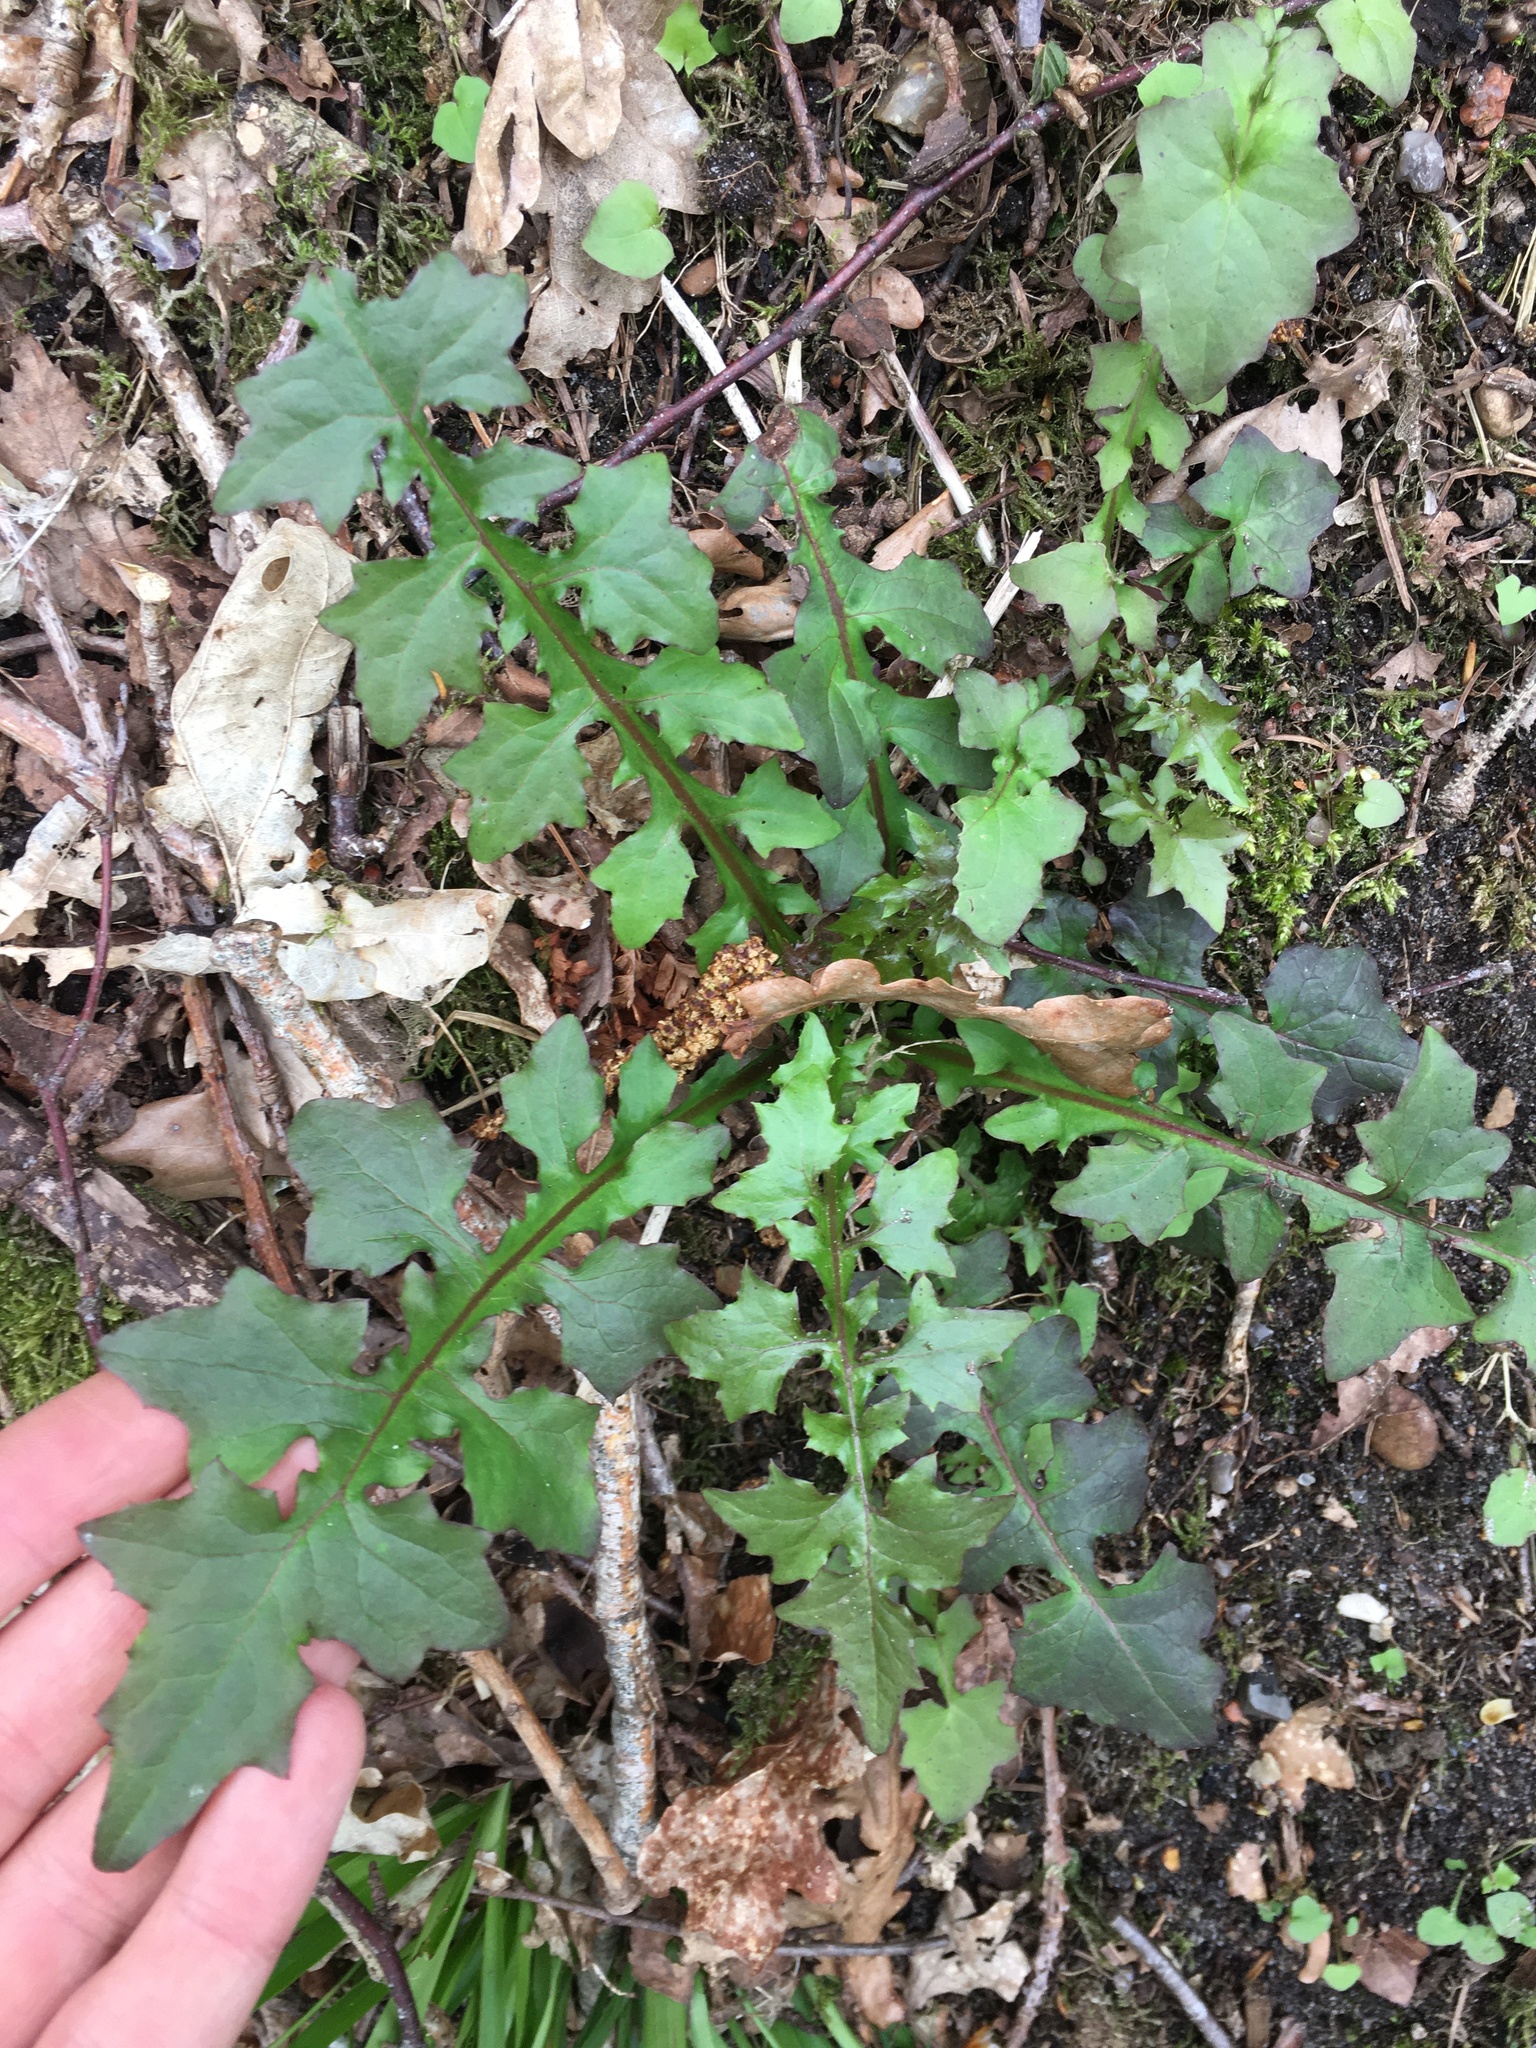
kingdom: Plantae
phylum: Tracheophyta
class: Magnoliopsida
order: Asterales
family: Asteraceae
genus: Mycelis
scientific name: Mycelis muralis
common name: Wall lettuce
